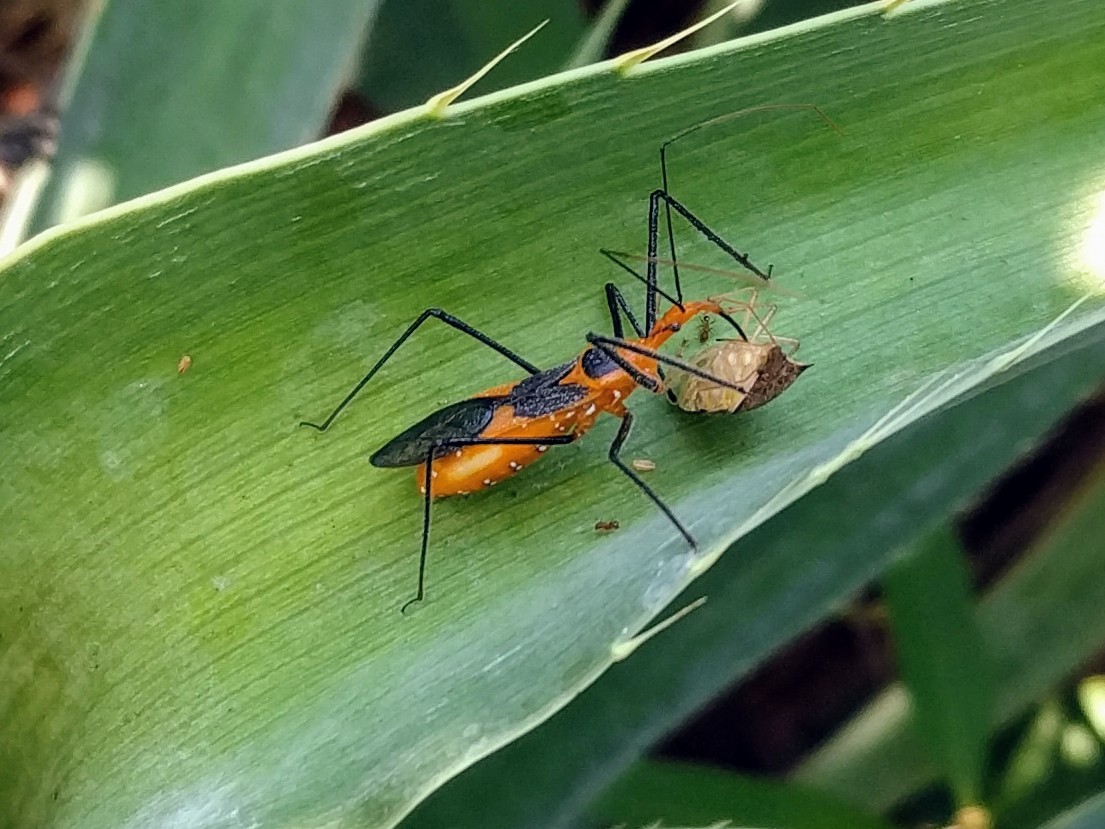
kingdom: Animalia
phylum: Arthropoda
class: Insecta
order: Hemiptera
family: Reduviidae
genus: Zelus
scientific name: Zelus longipes
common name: Milkweed assassin bug
